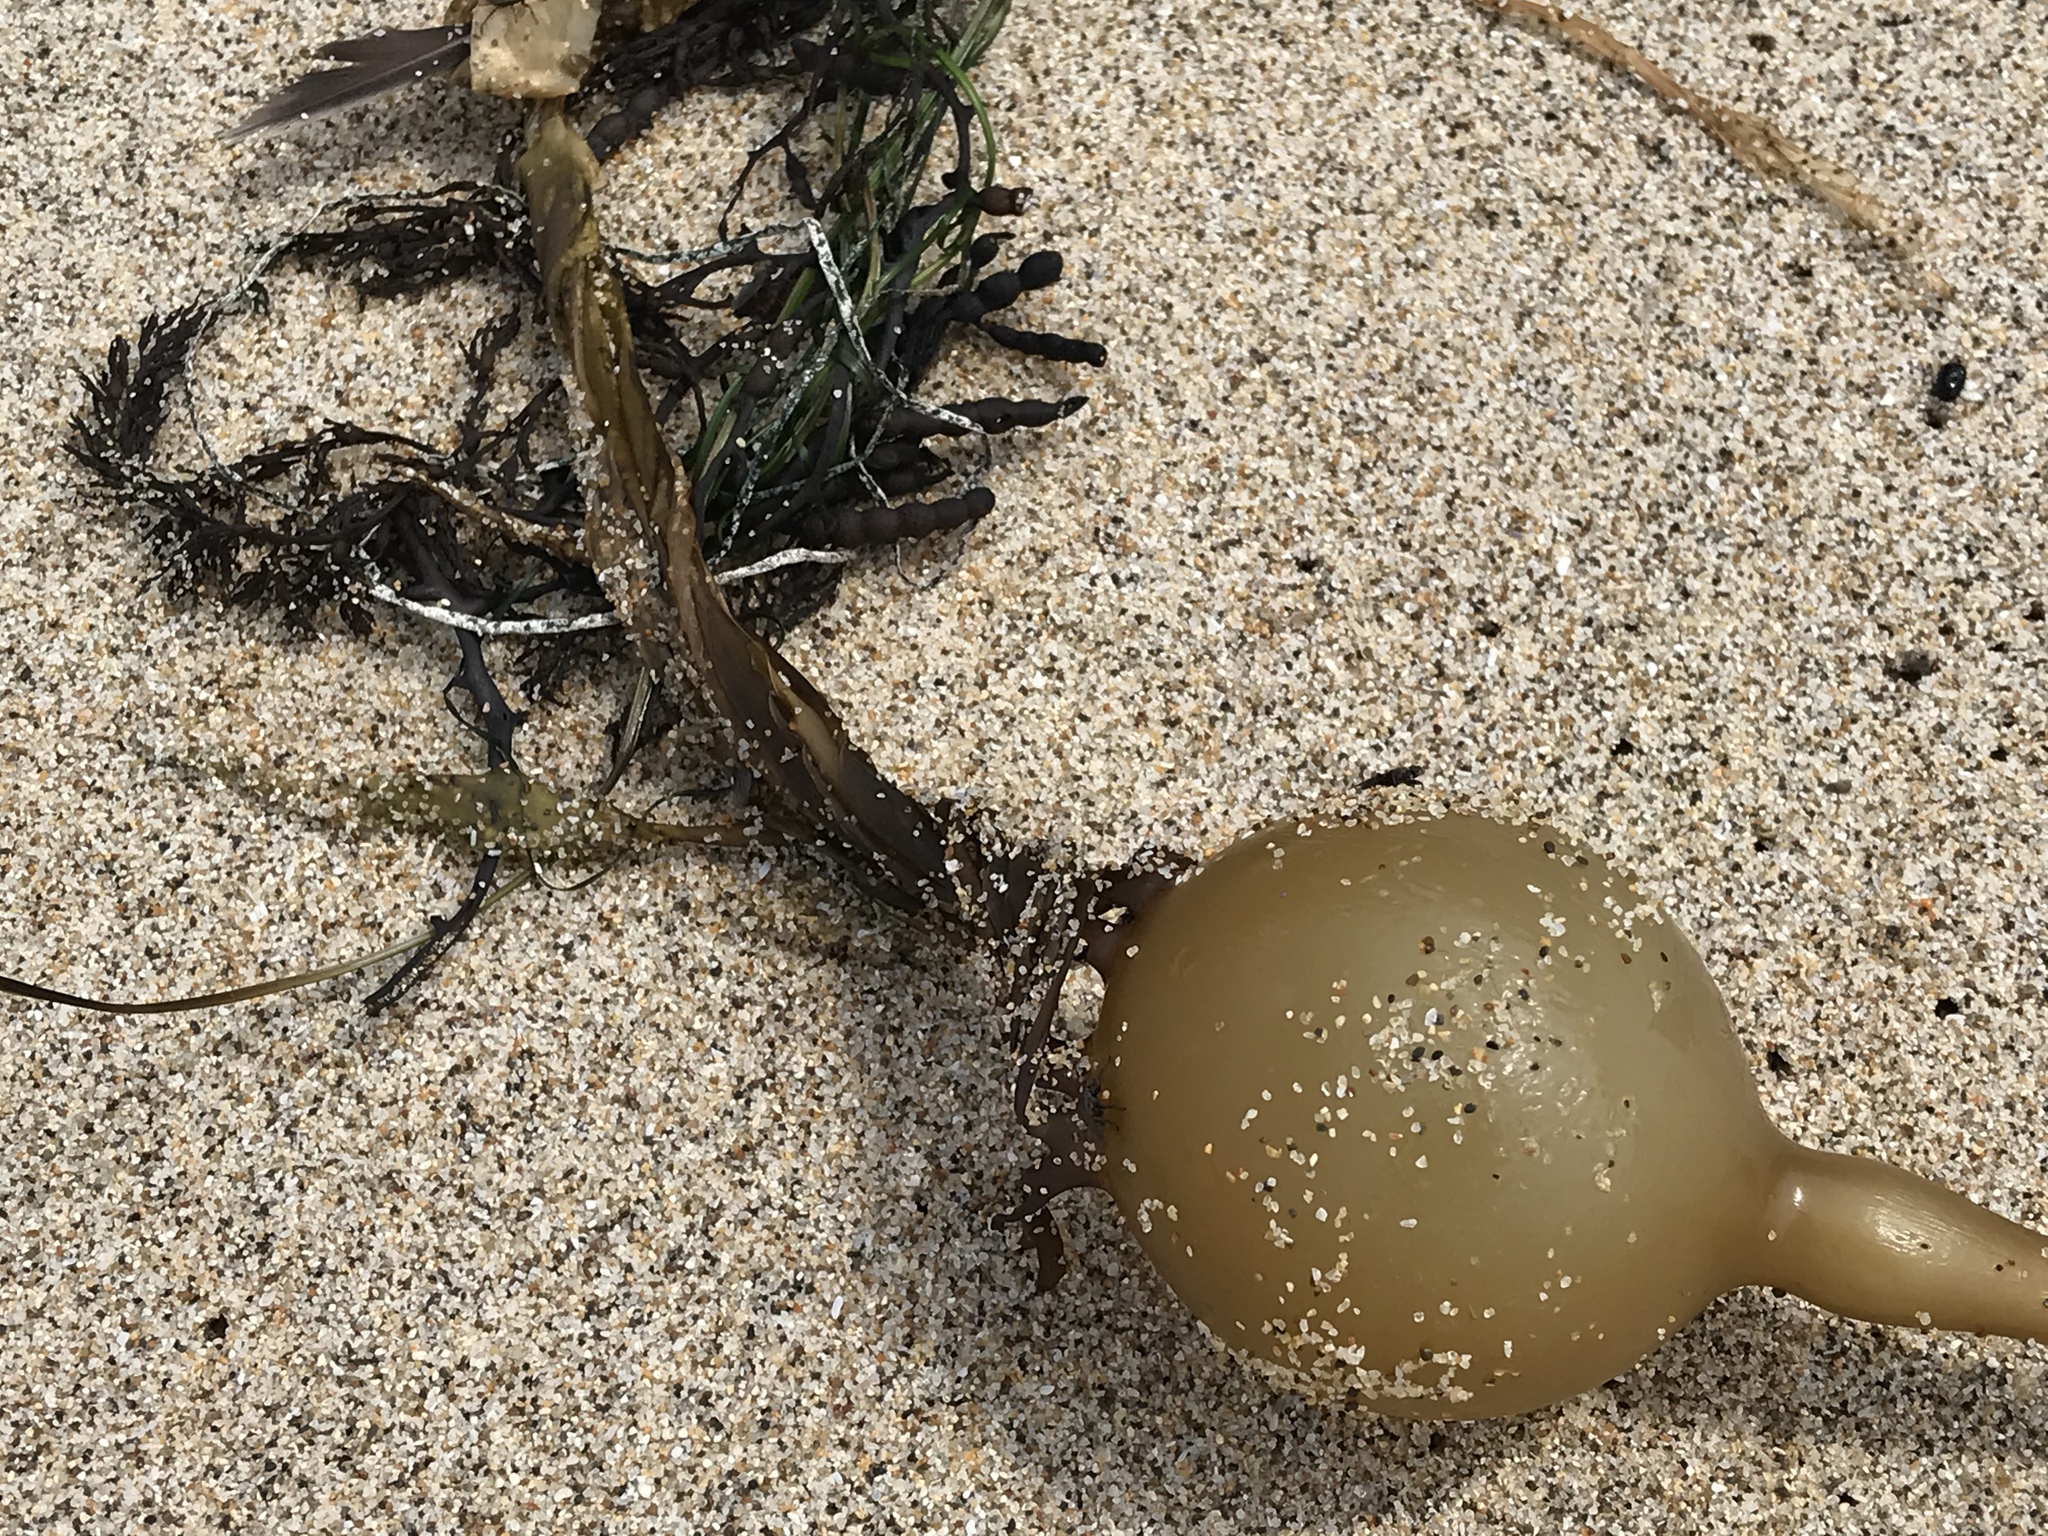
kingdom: Chromista
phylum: Ochrophyta
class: Phaeophyceae
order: Laminariales
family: Laminariaceae
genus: Nereocystis
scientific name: Nereocystis luetkeana
